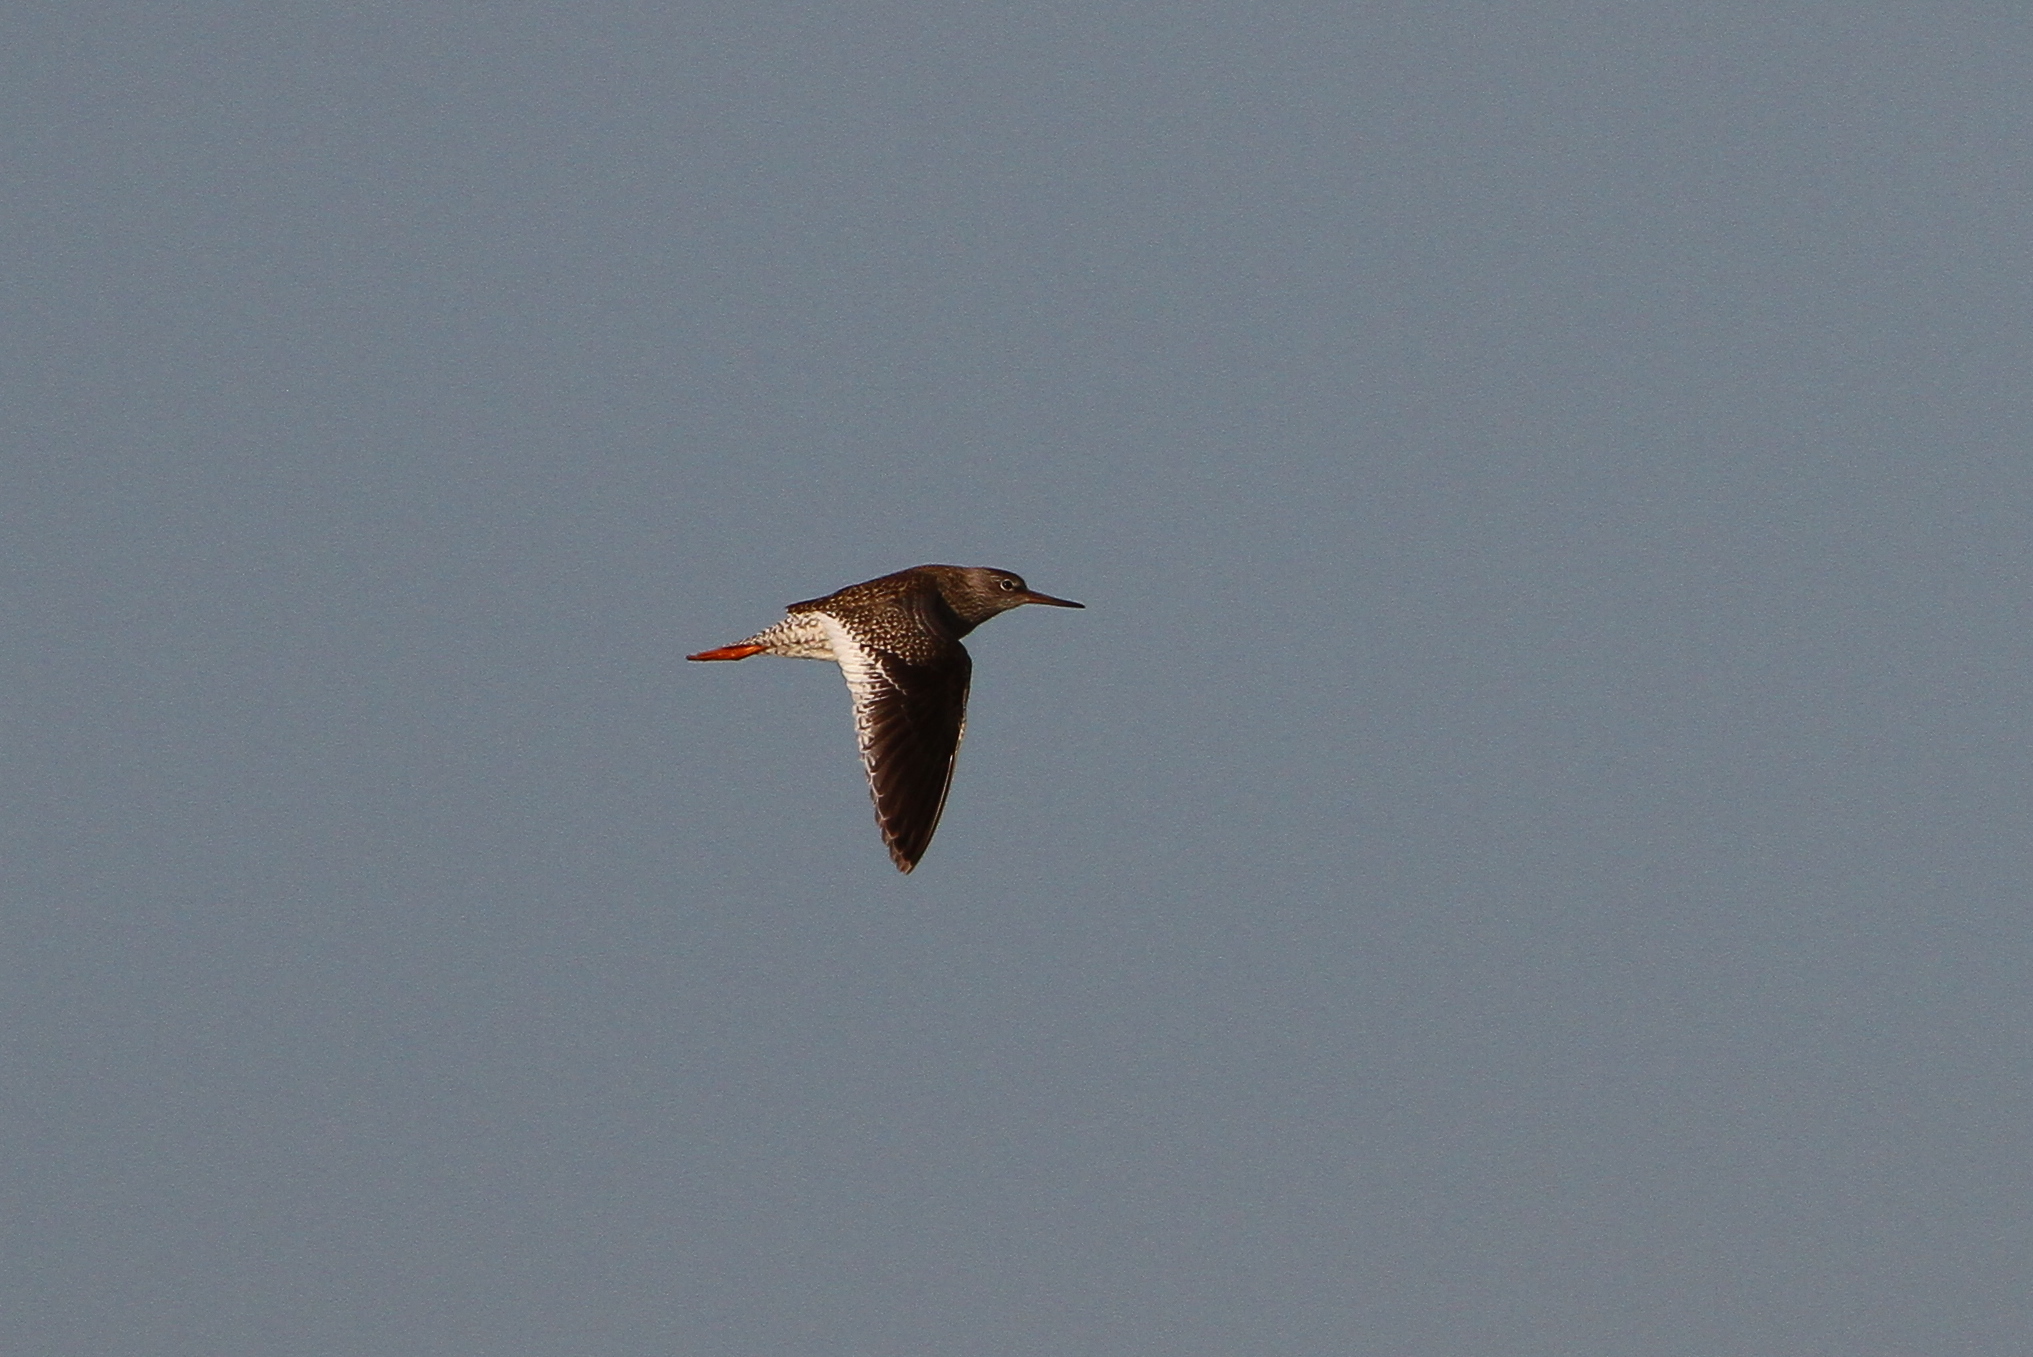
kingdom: Animalia
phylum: Chordata
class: Aves
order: Charadriiformes
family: Scolopacidae
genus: Tringa
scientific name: Tringa totanus
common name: Common redshank
